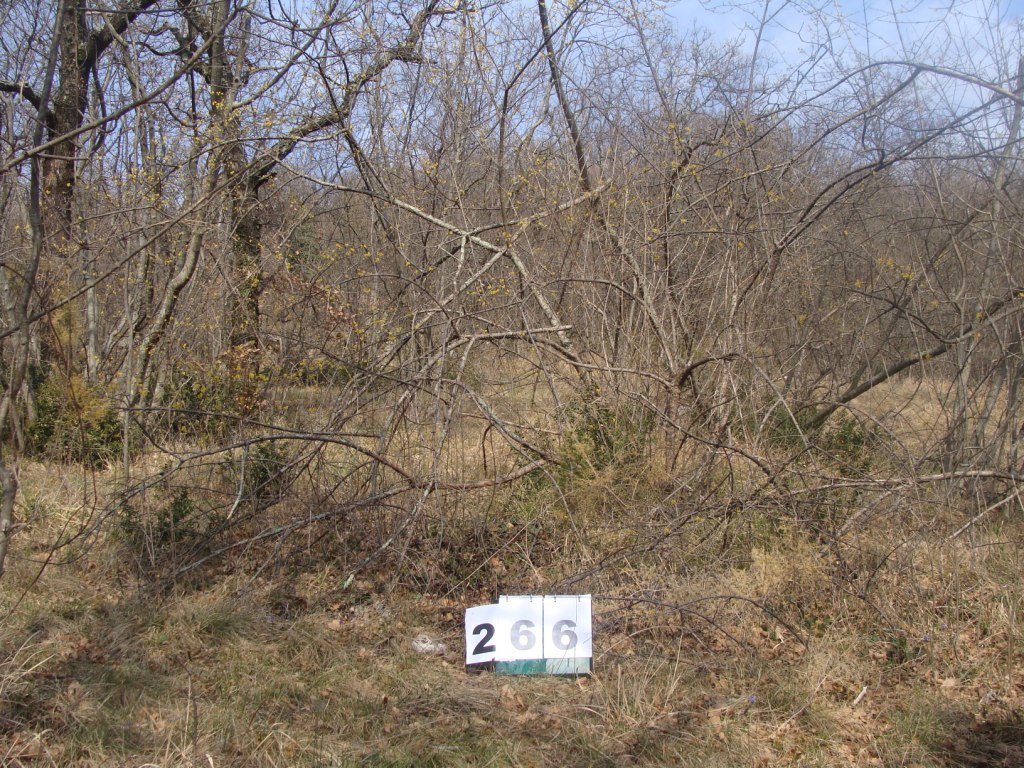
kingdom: Plantae
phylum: Tracheophyta
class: Magnoliopsida
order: Cornales
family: Cornaceae
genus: Cornus
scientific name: Cornus mas
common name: Cornelian-cherry
